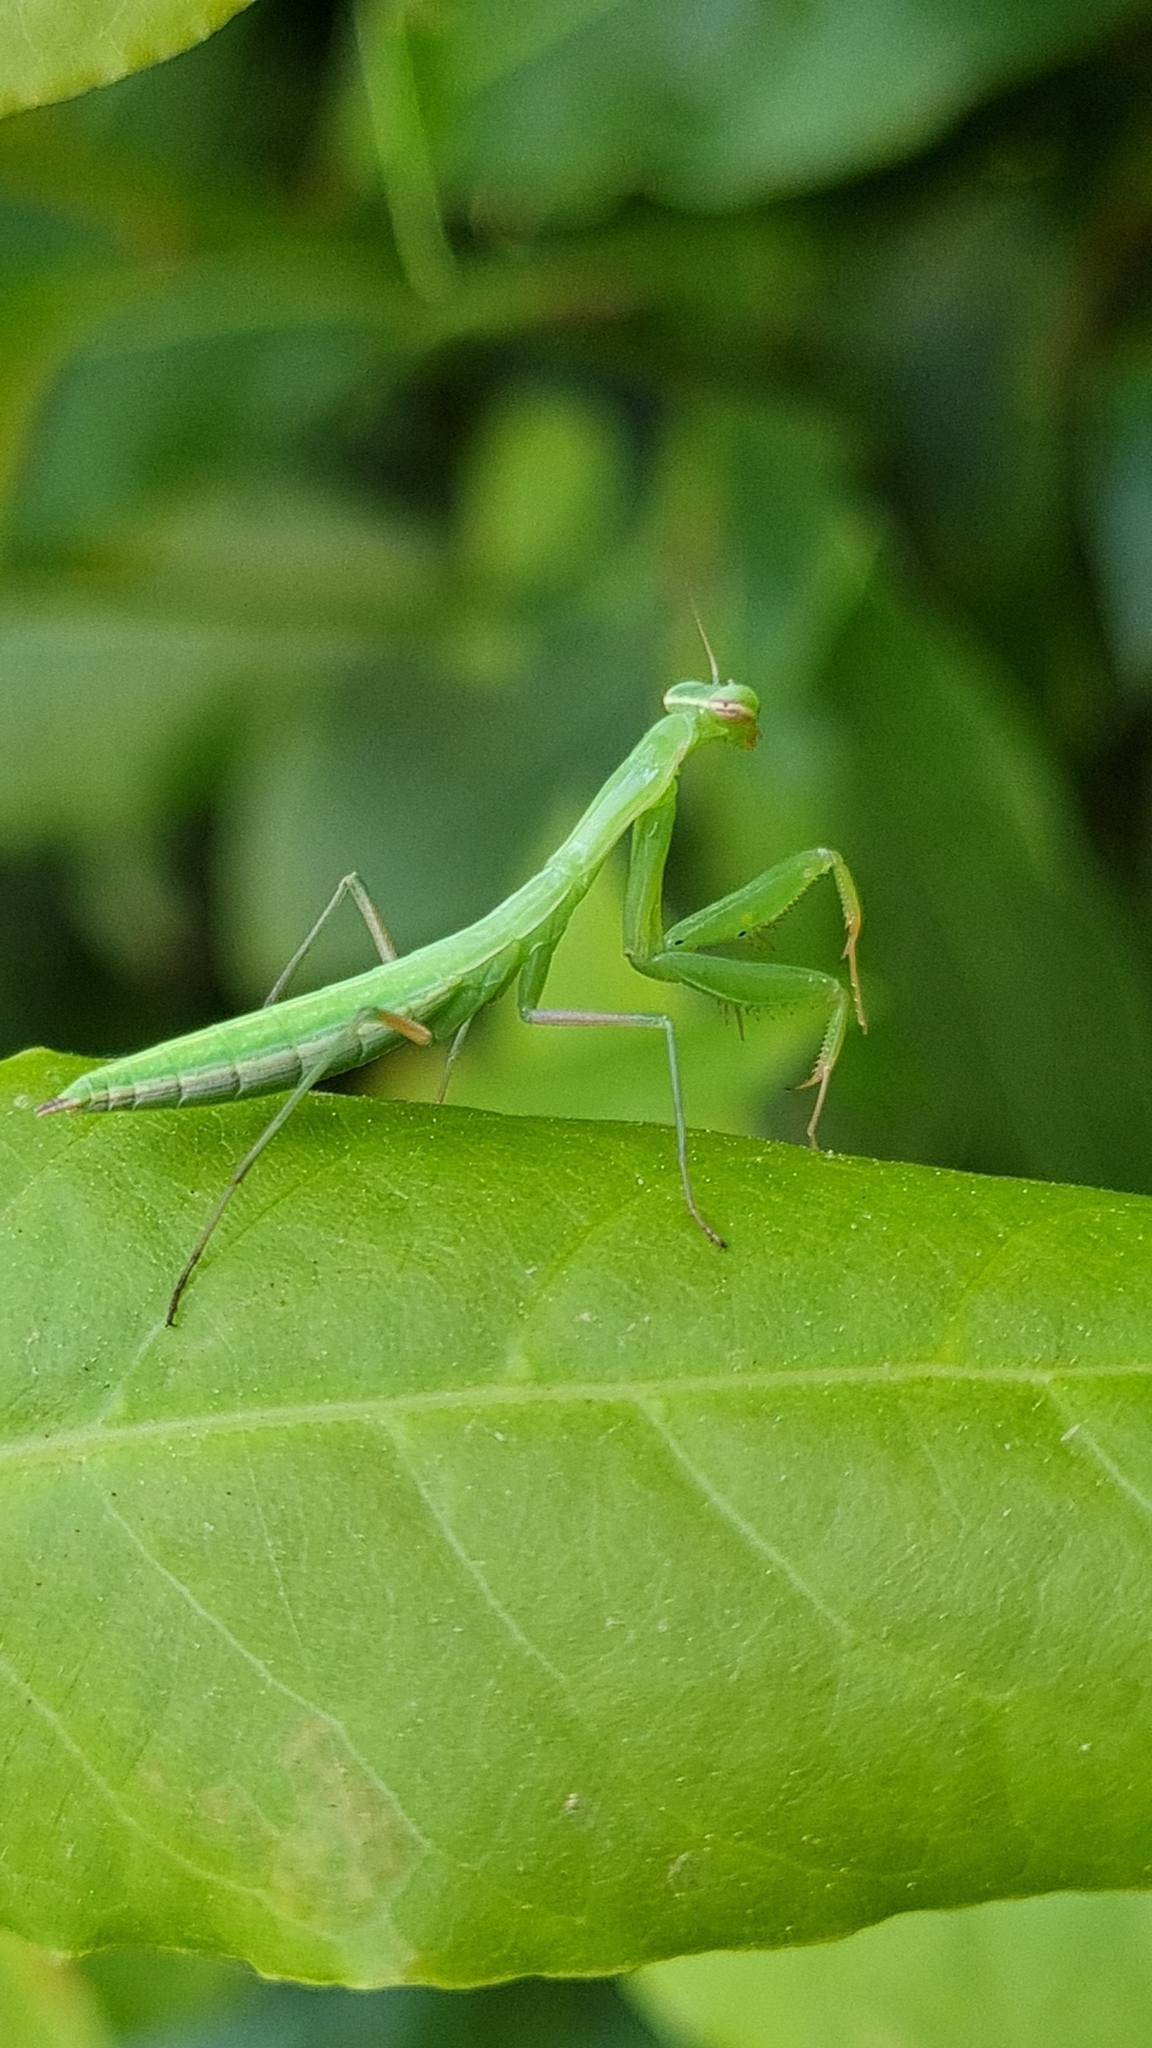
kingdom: Animalia
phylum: Arthropoda
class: Insecta
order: Mantodea
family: Mantidae
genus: Mantis
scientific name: Mantis religiosa
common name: Praying mantis
